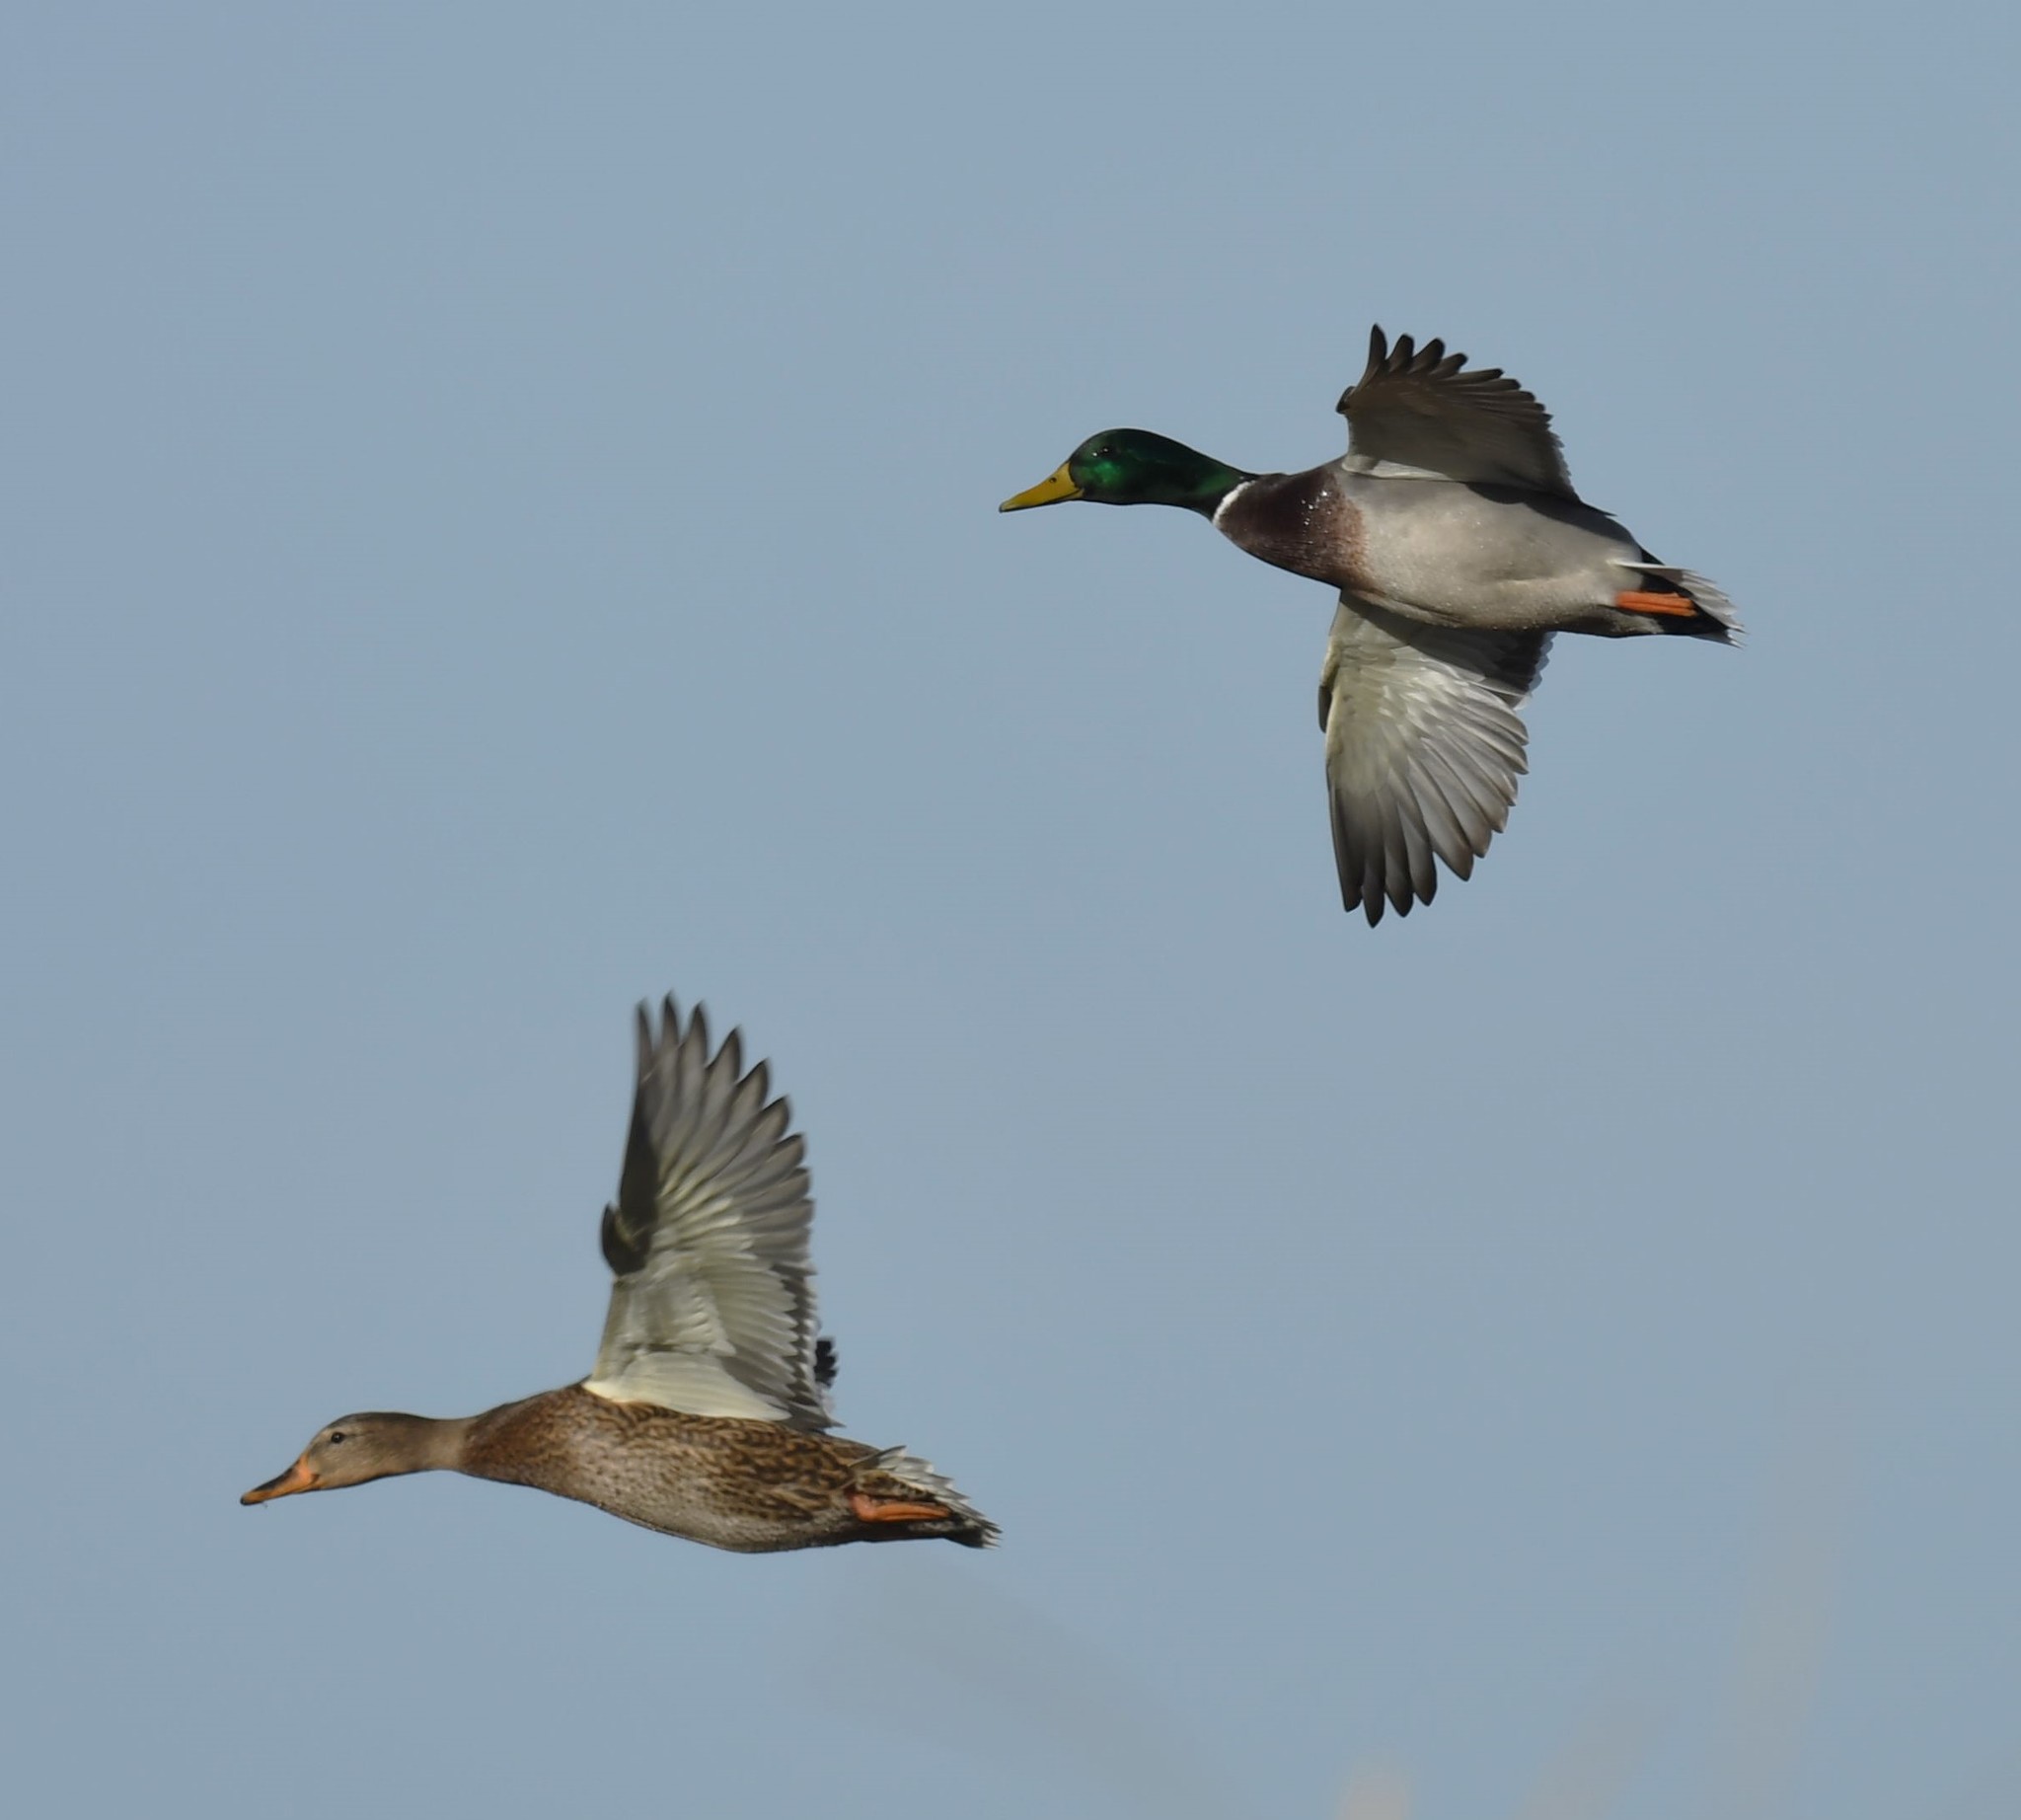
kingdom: Animalia
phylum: Chordata
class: Aves
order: Anseriformes
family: Anatidae
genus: Anas
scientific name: Anas platyrhynchos
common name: Mallard
